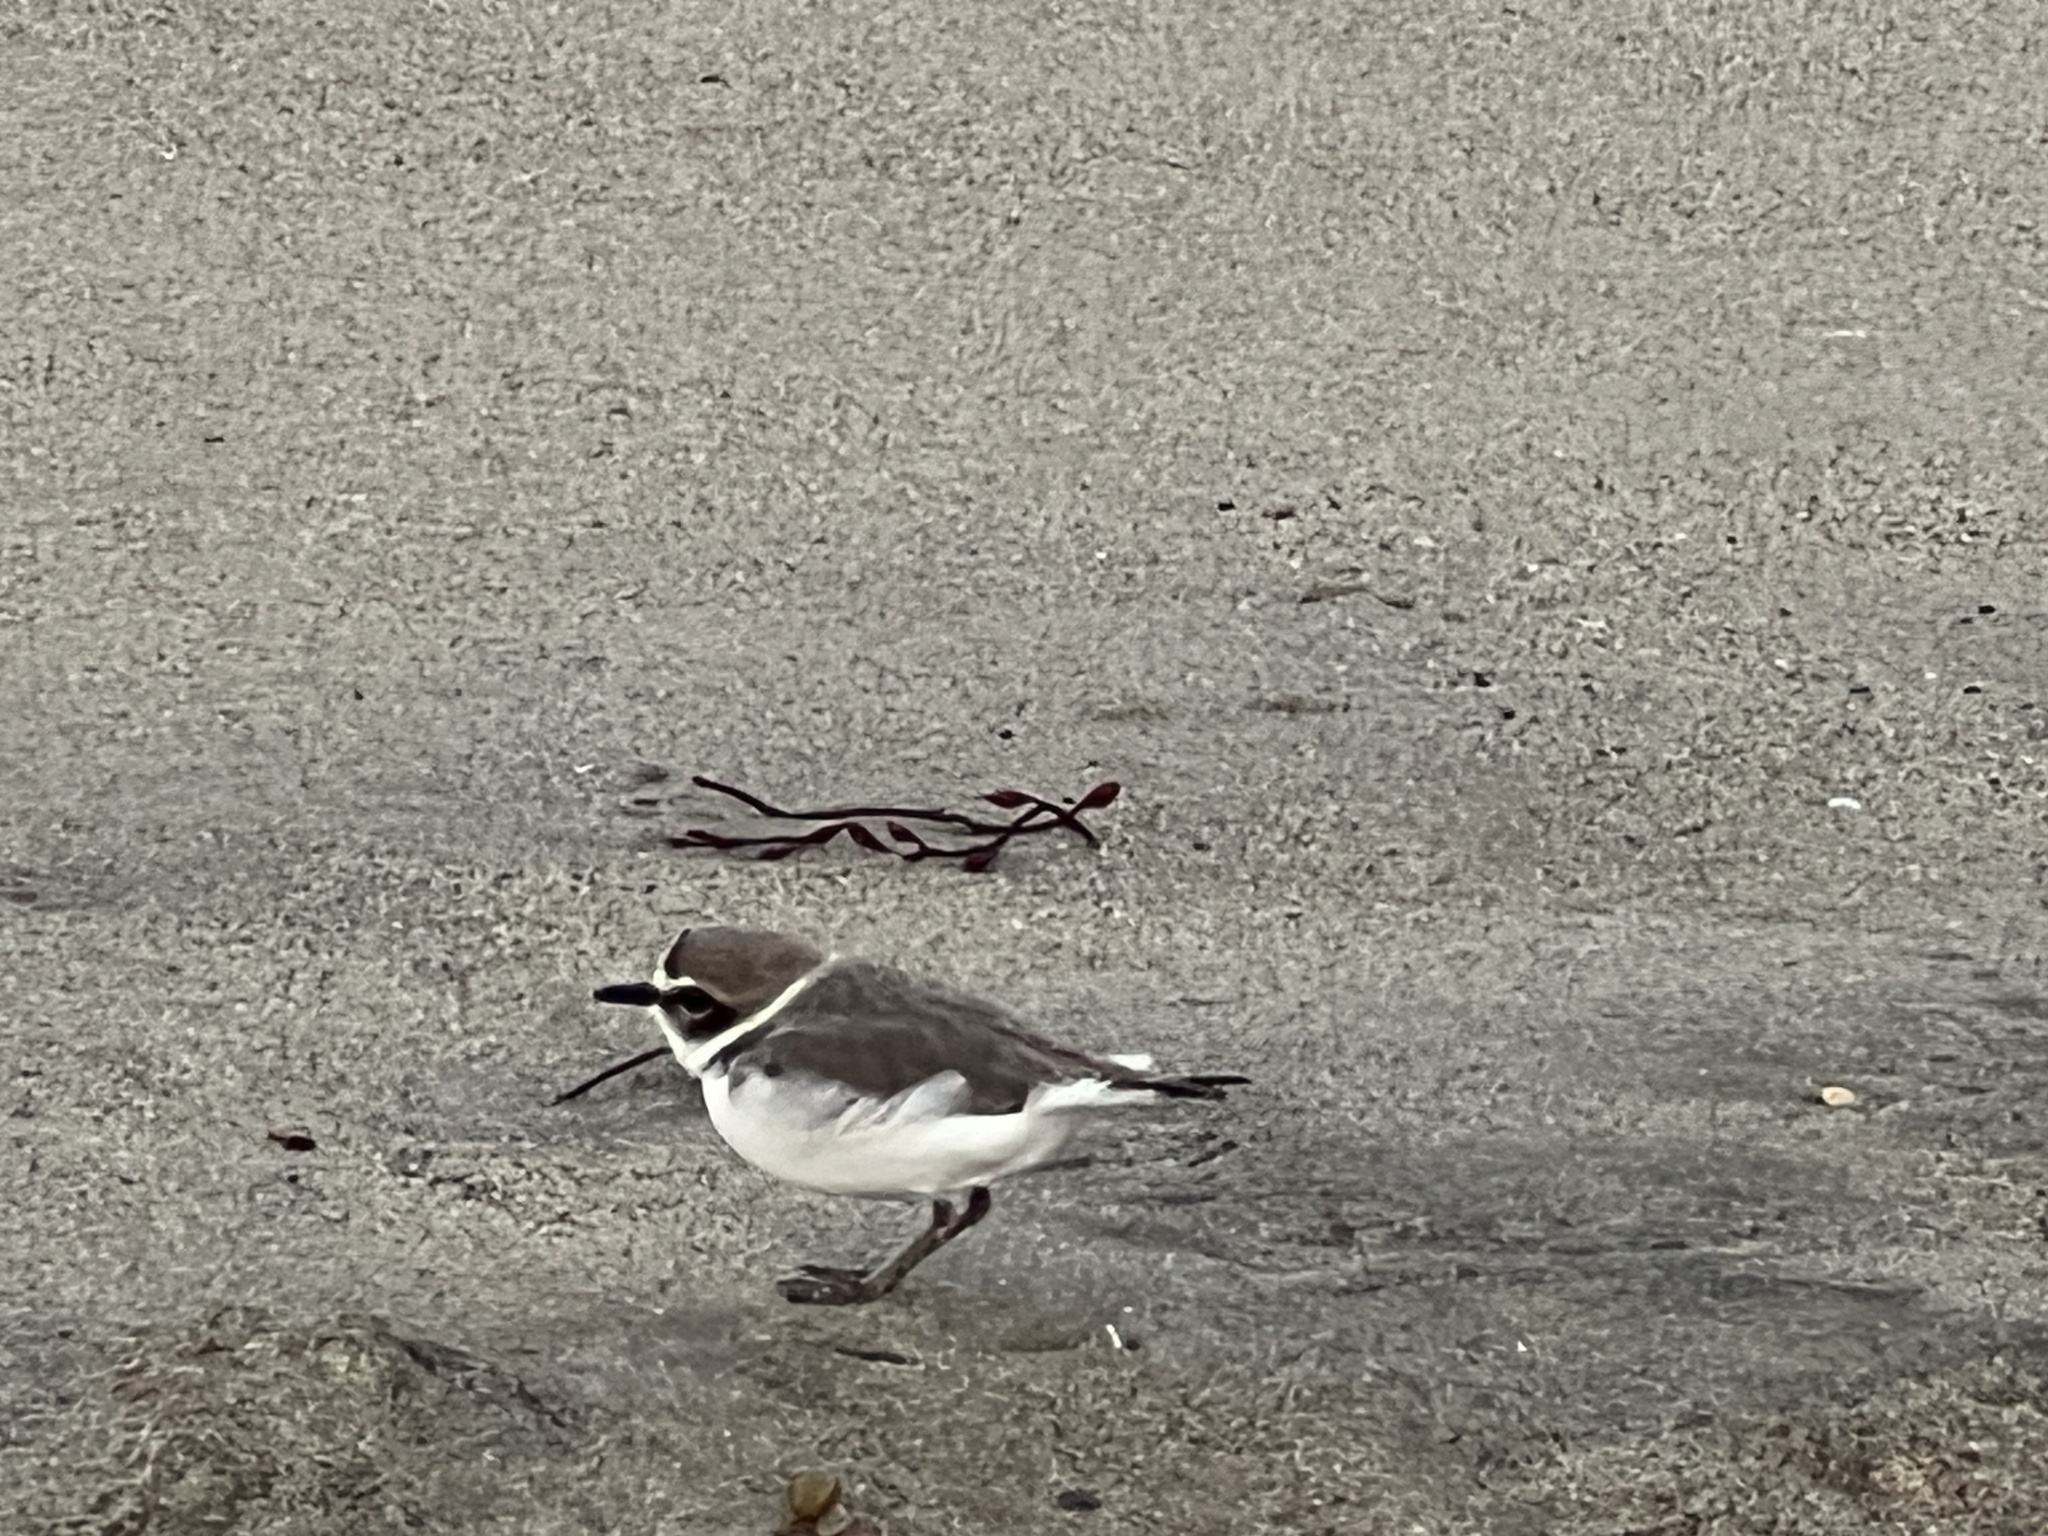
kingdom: Animalia
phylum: Chordata
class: Aves
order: Charadriiformes
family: Charadriidae
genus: Anarhynchus
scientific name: Anarhynchus
